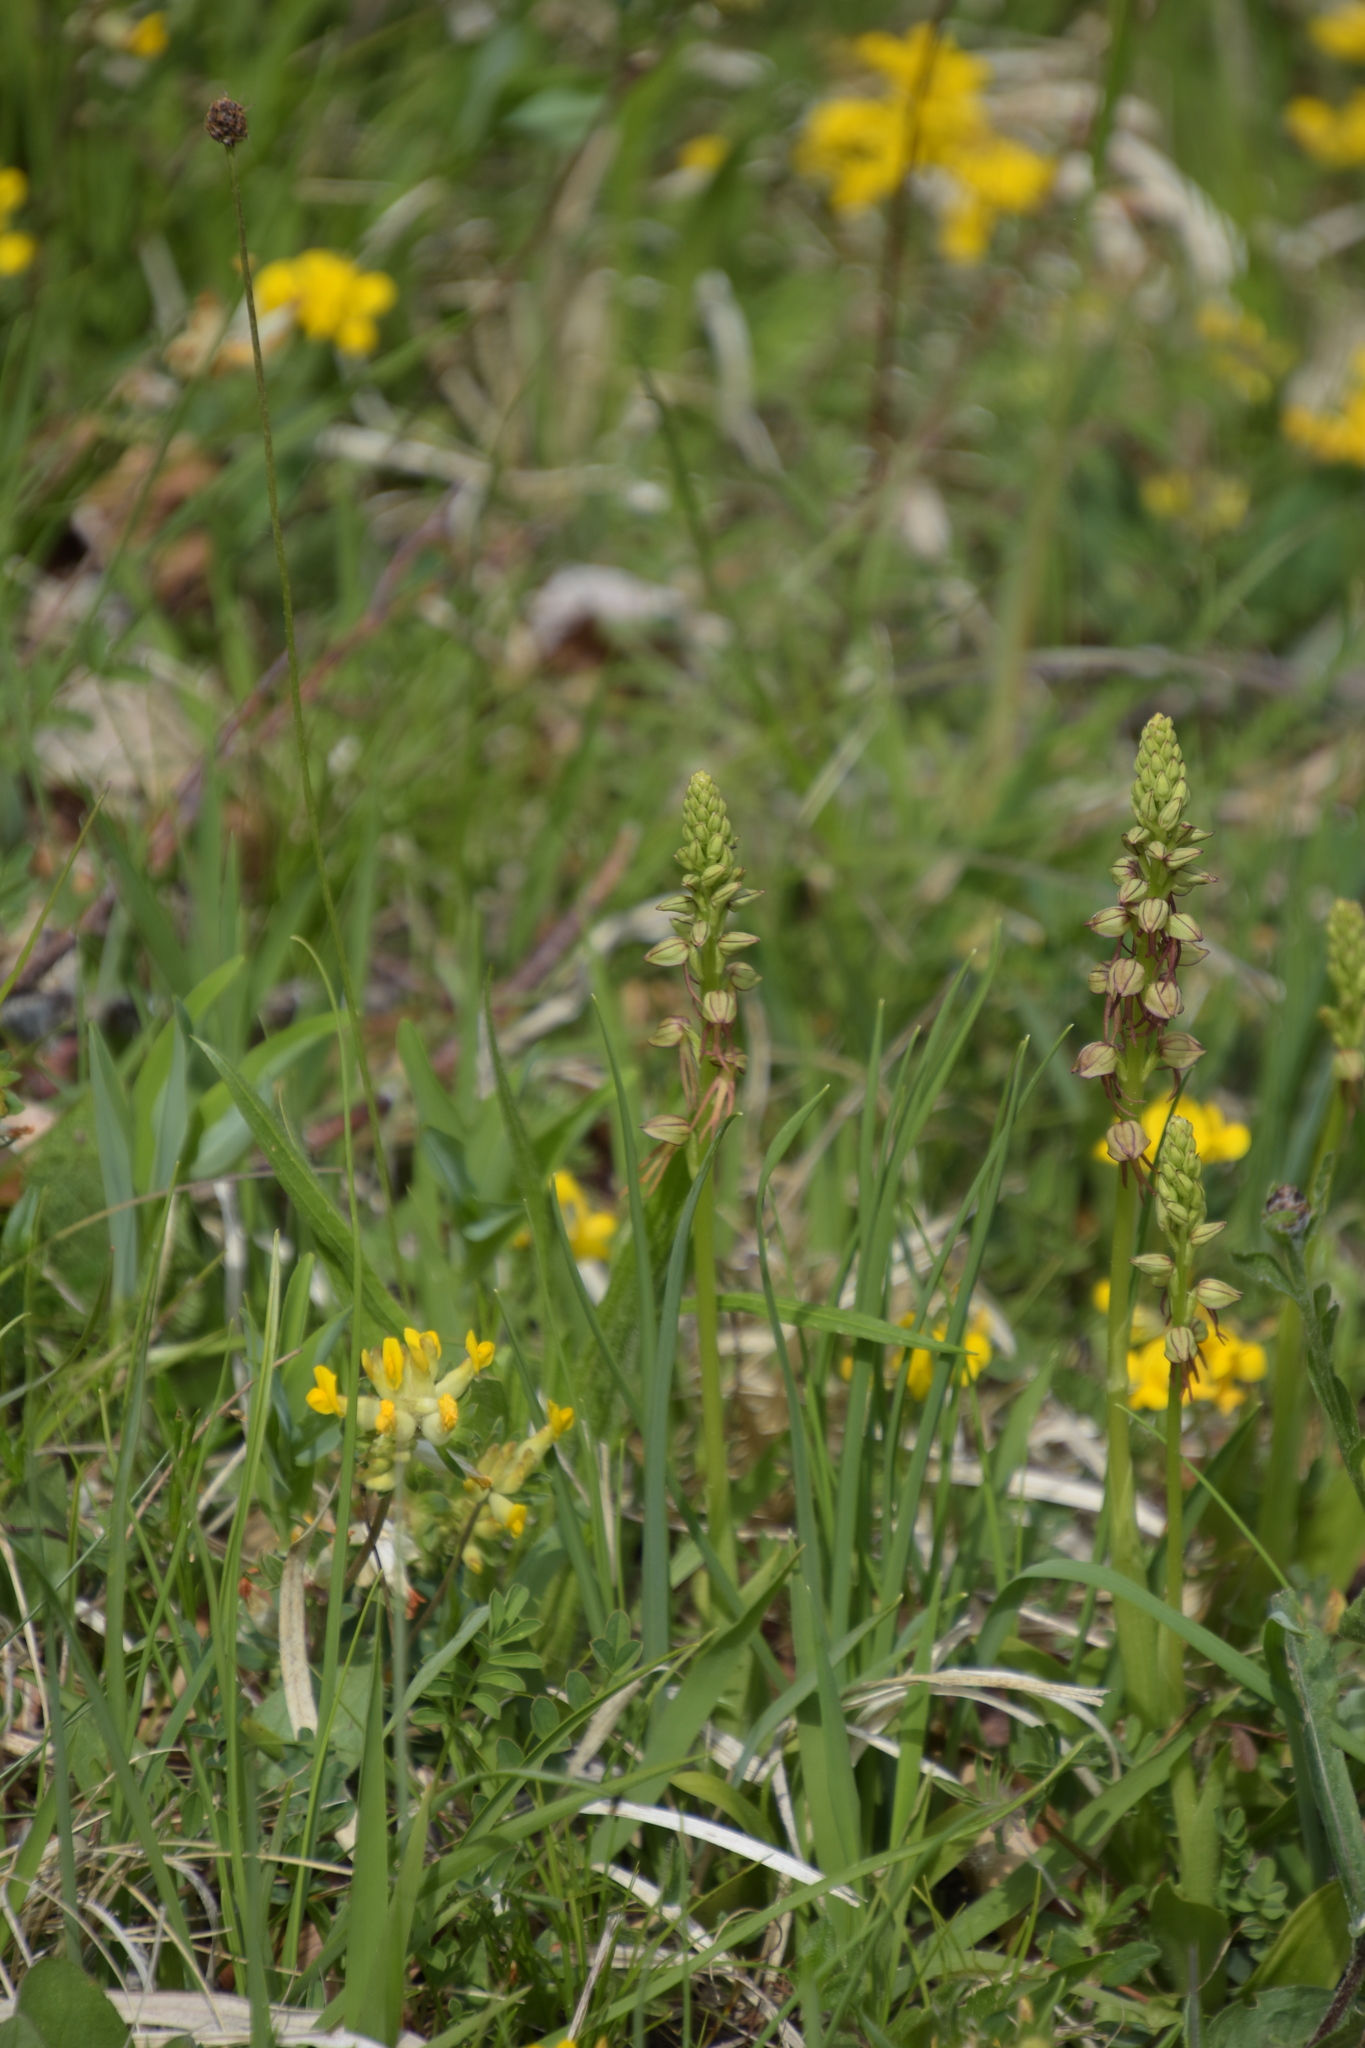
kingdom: Plantae
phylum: Tracheophyta
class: Liliopsida
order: Asparagales
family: Orchidaceae
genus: Orchis
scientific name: Orchis anthropophora
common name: Man orchid
